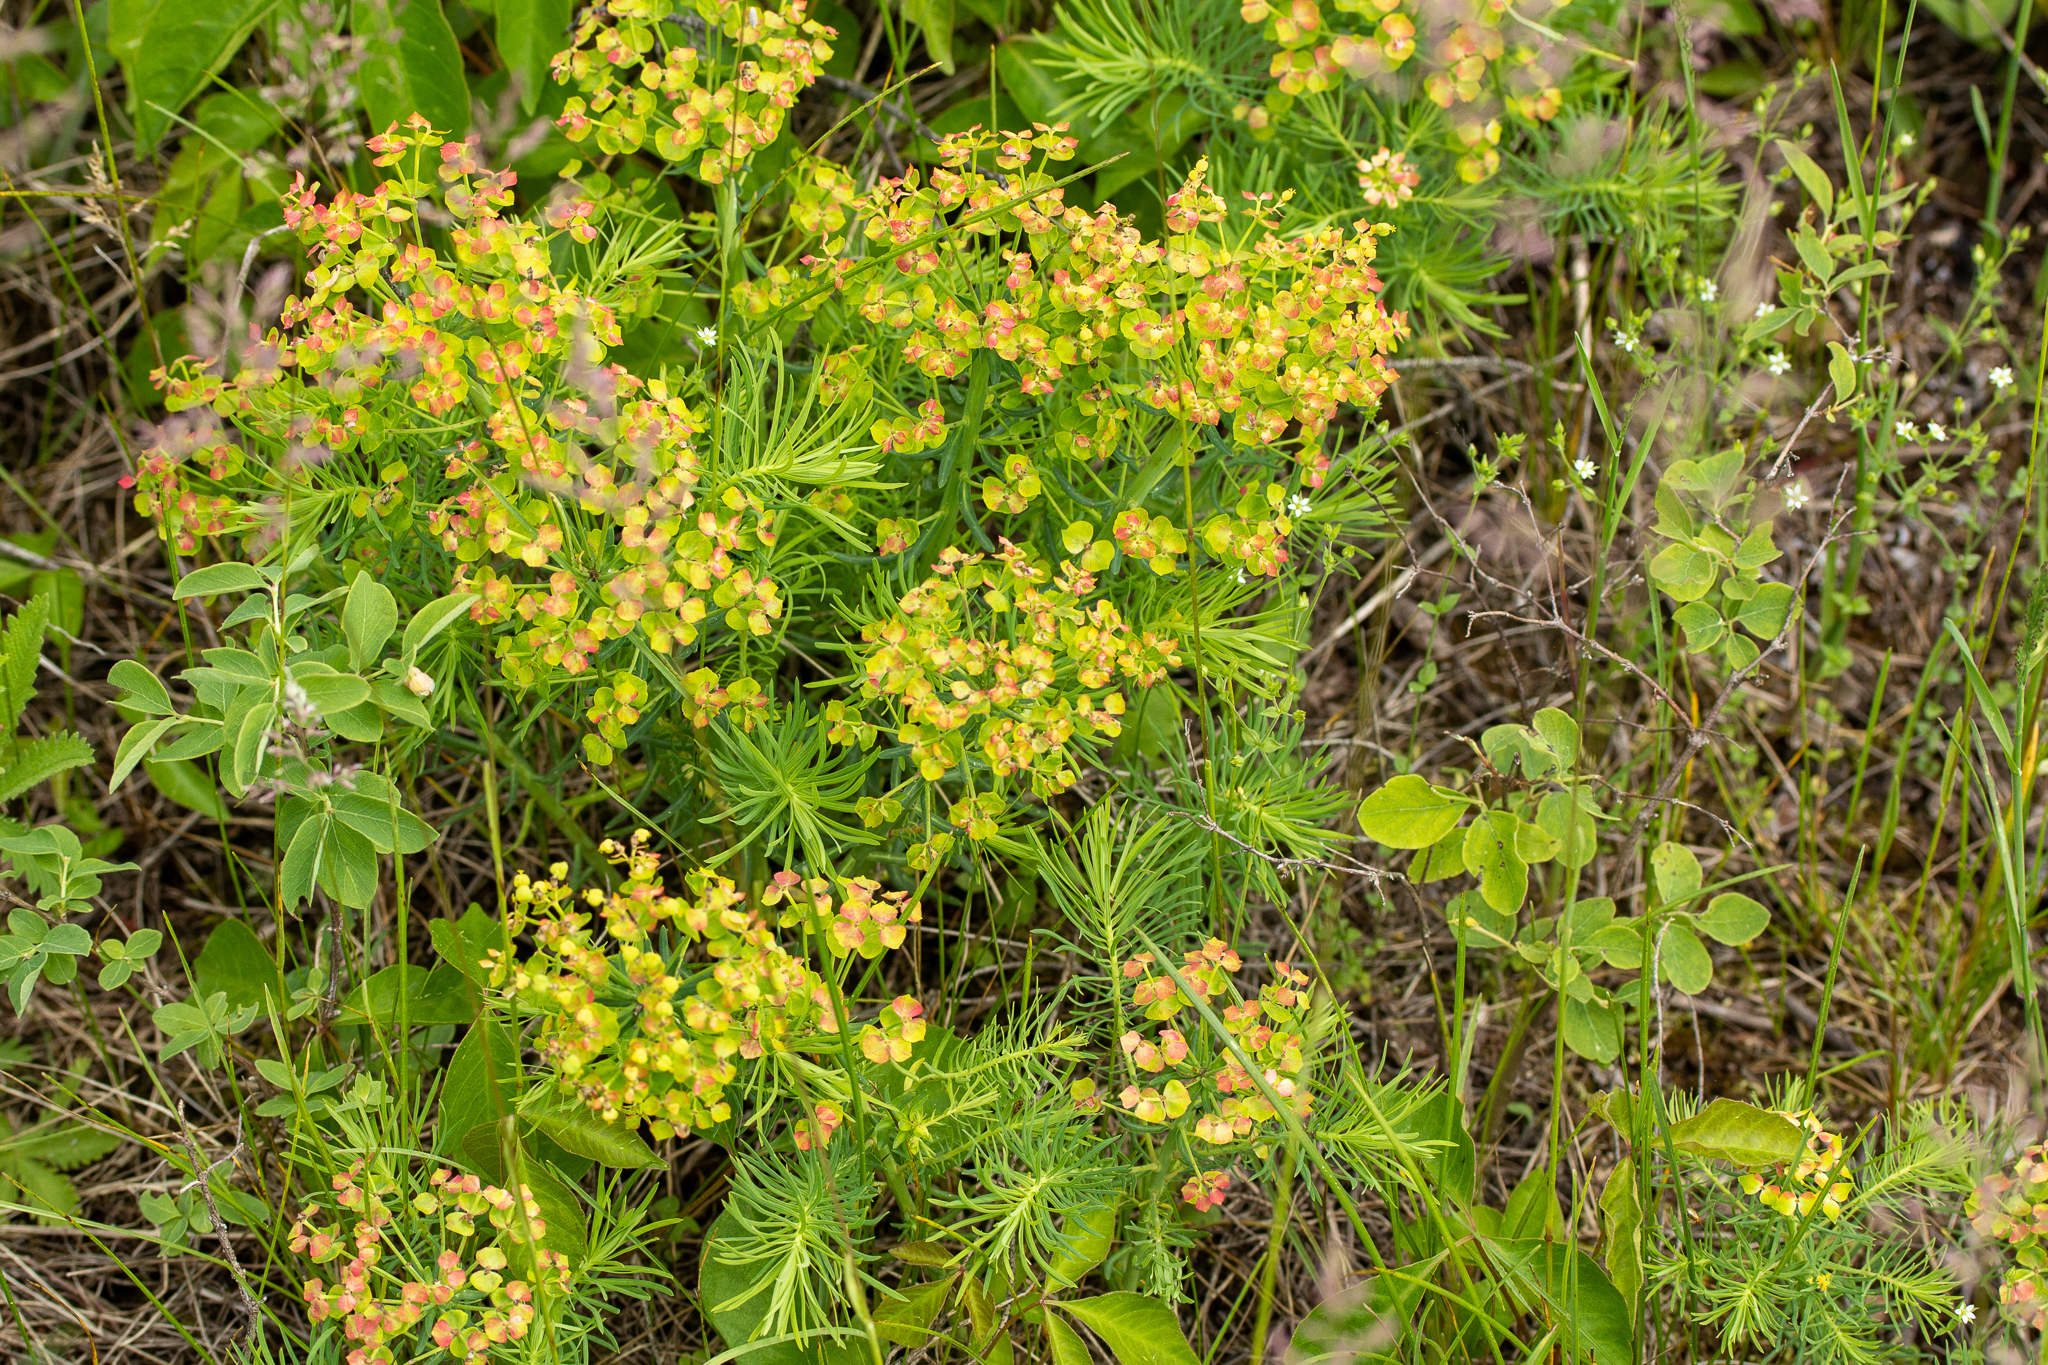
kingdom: Plantae
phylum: Tracheophyta
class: Magnoliopsida
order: Malpighiales
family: Euphorbiaceae
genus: Euphorbia
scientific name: Euphorbia cyparissias
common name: Cypress spurge
